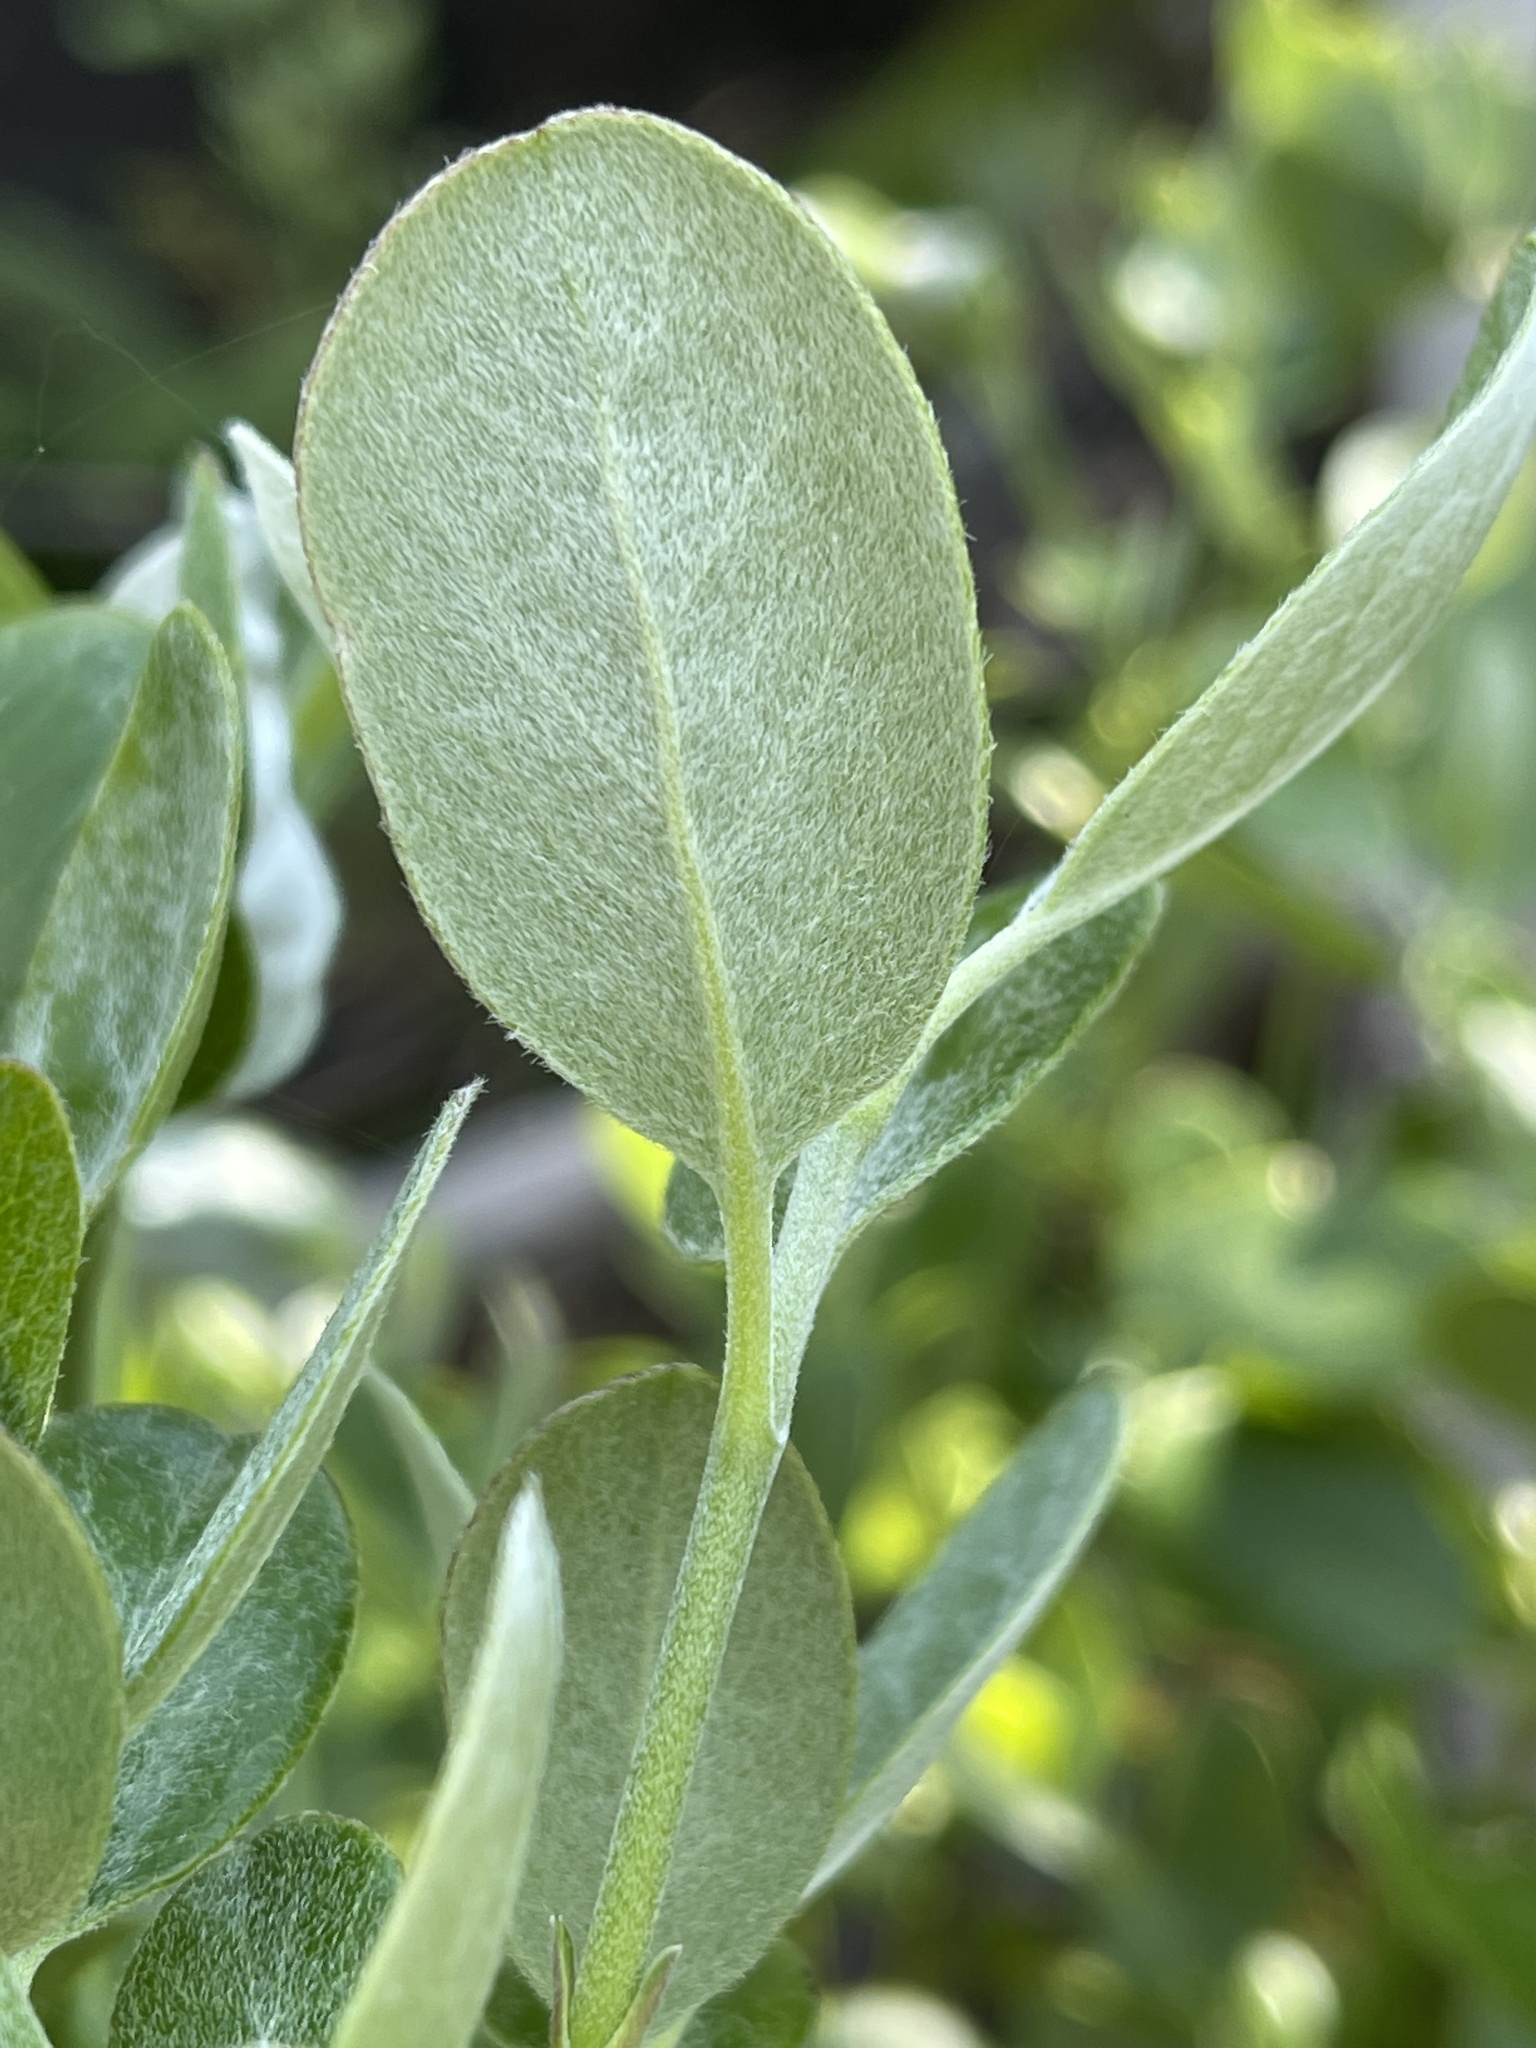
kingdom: Plantae
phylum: Tracheophyta
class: Magnoliopsida
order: Garryales
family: Garryaceae
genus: Garrya
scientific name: Garrya buxifolia
